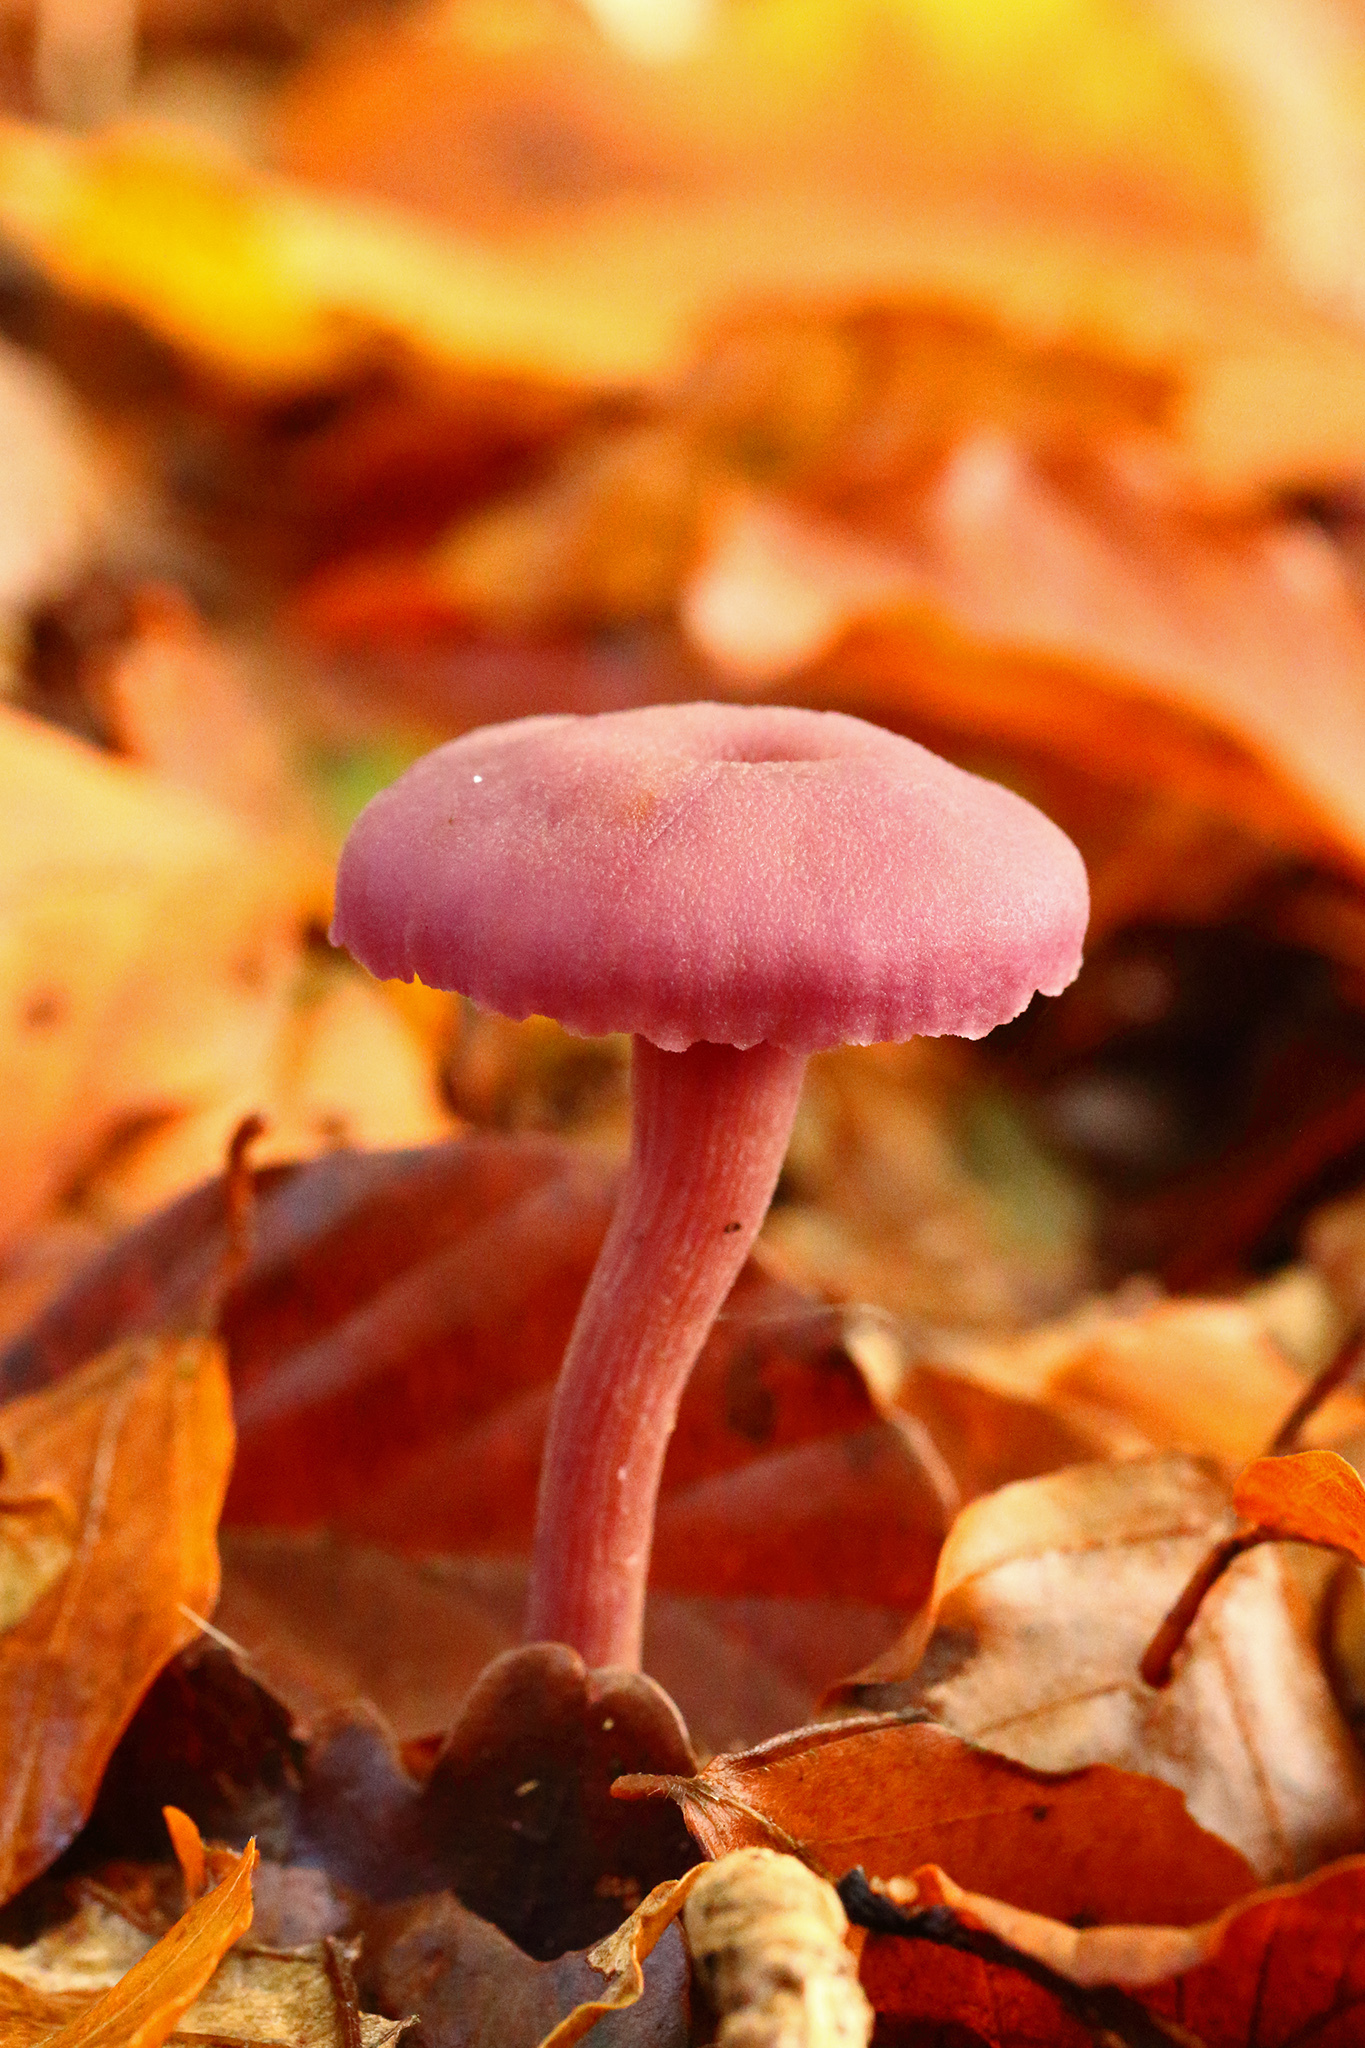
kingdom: Fungi
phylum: Basidiomycota
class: Agaricomycetes
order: Agaricales
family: Hydnangiaceae
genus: Laccaria
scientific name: Laccaria amethystina
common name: Amethyst deceiver
